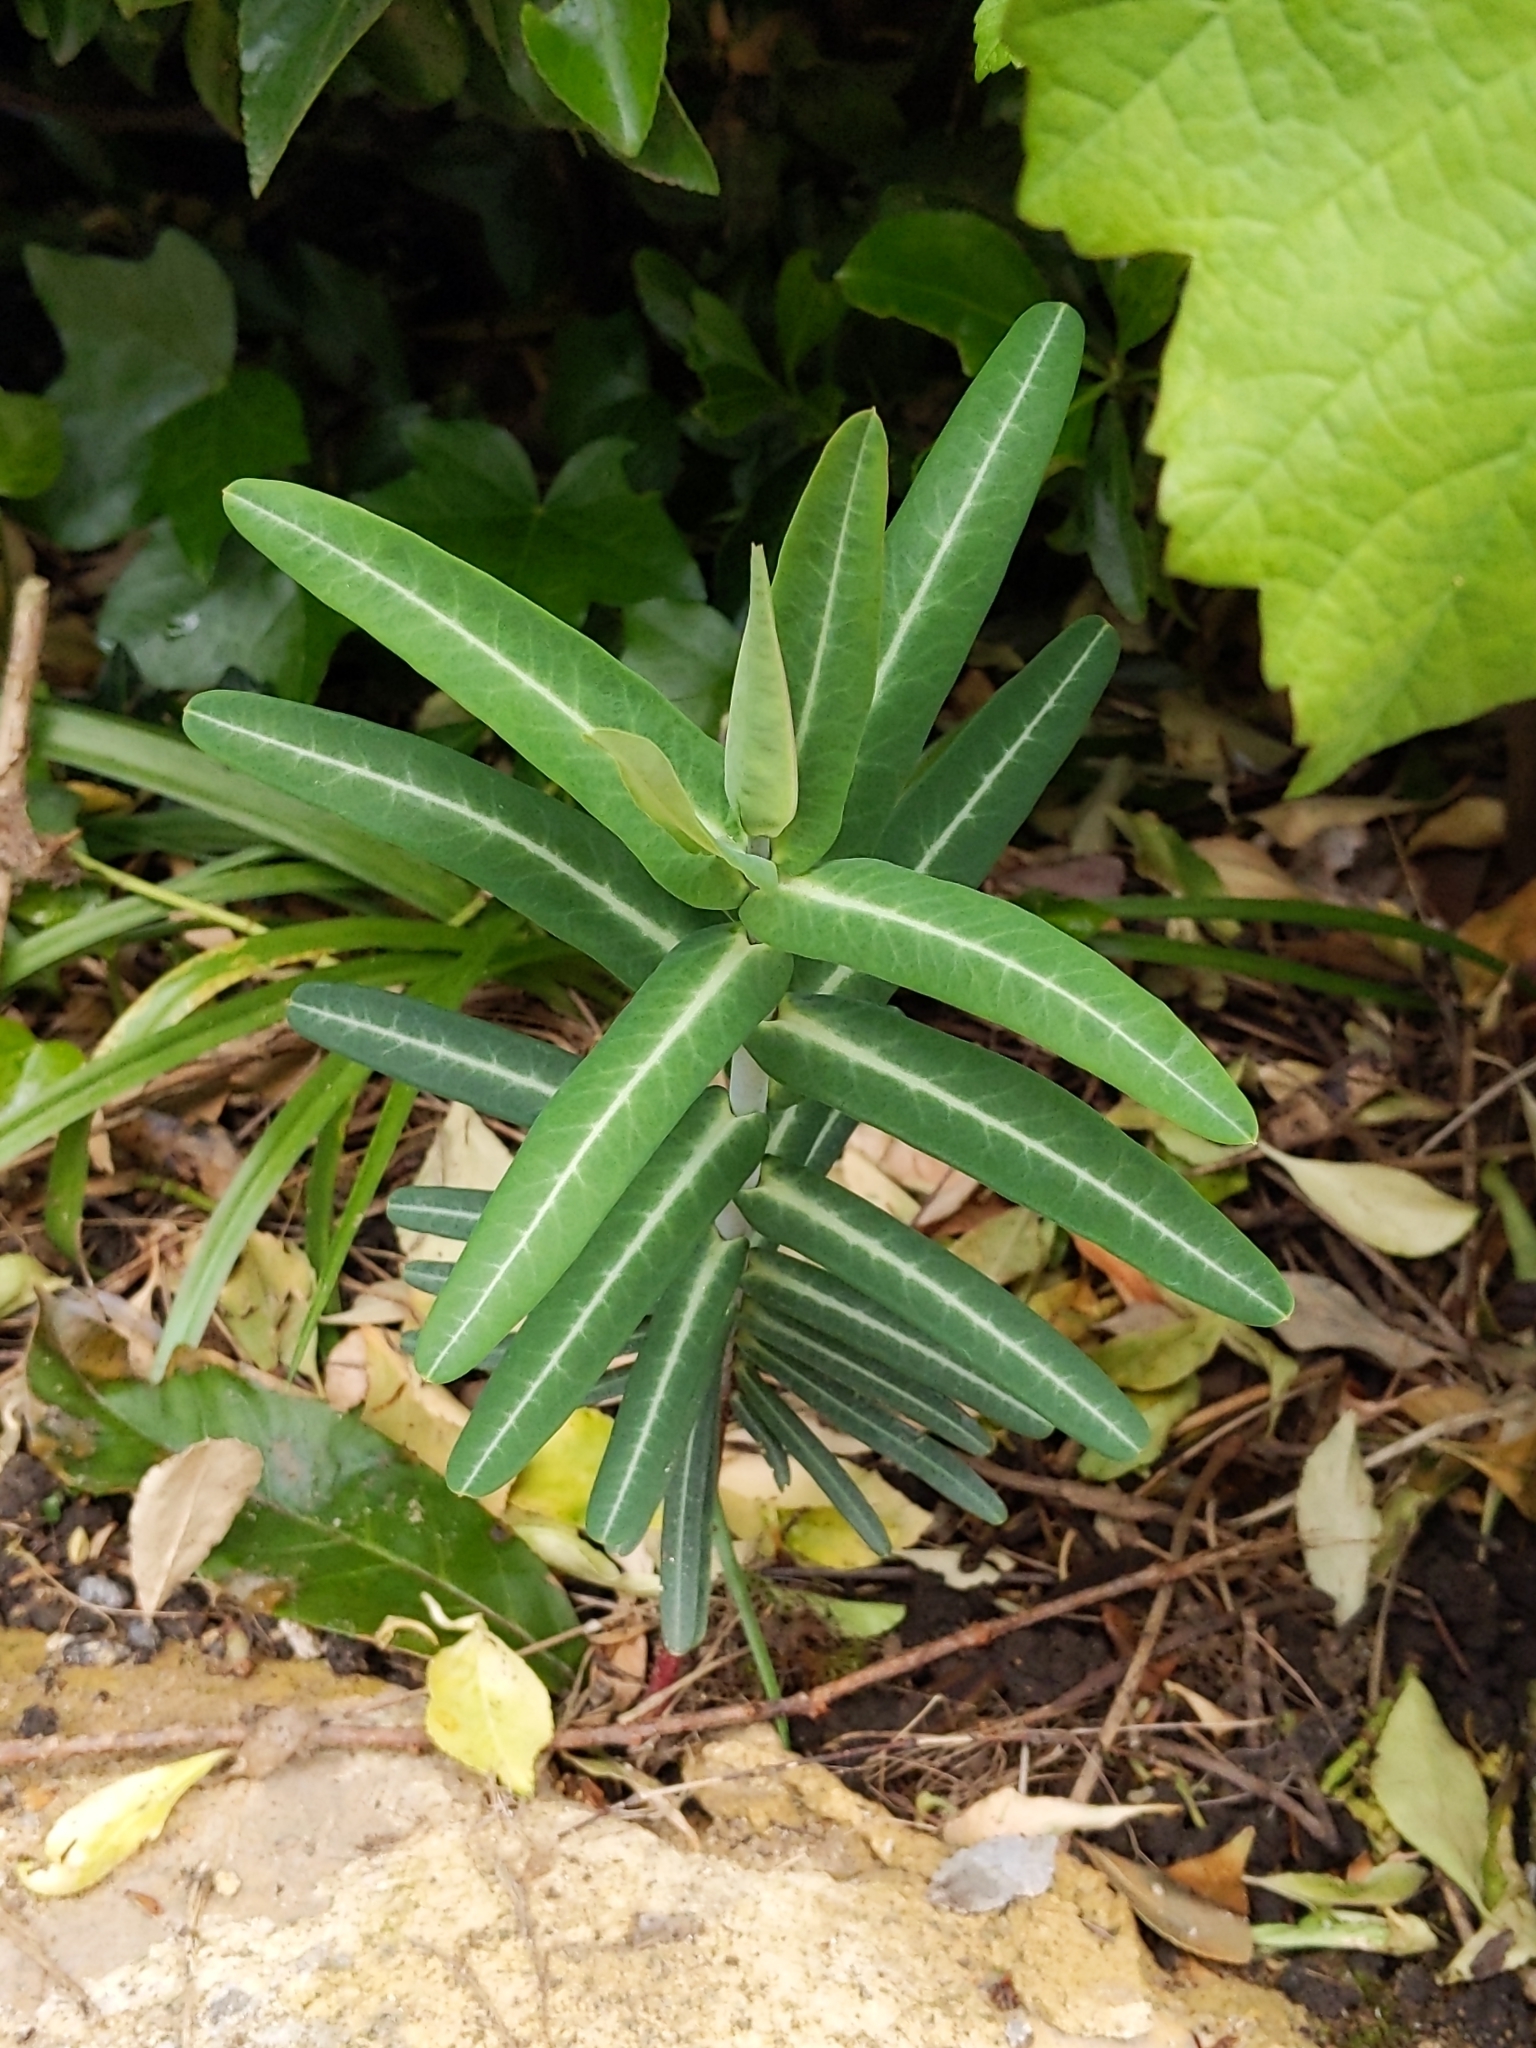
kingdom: Plantae
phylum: Tracheophyta
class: Magnoliopsida
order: Malpighiales
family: Euphorbiaceae
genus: Euphorbia
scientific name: Euphorbia lathyris
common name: Caper spurge
